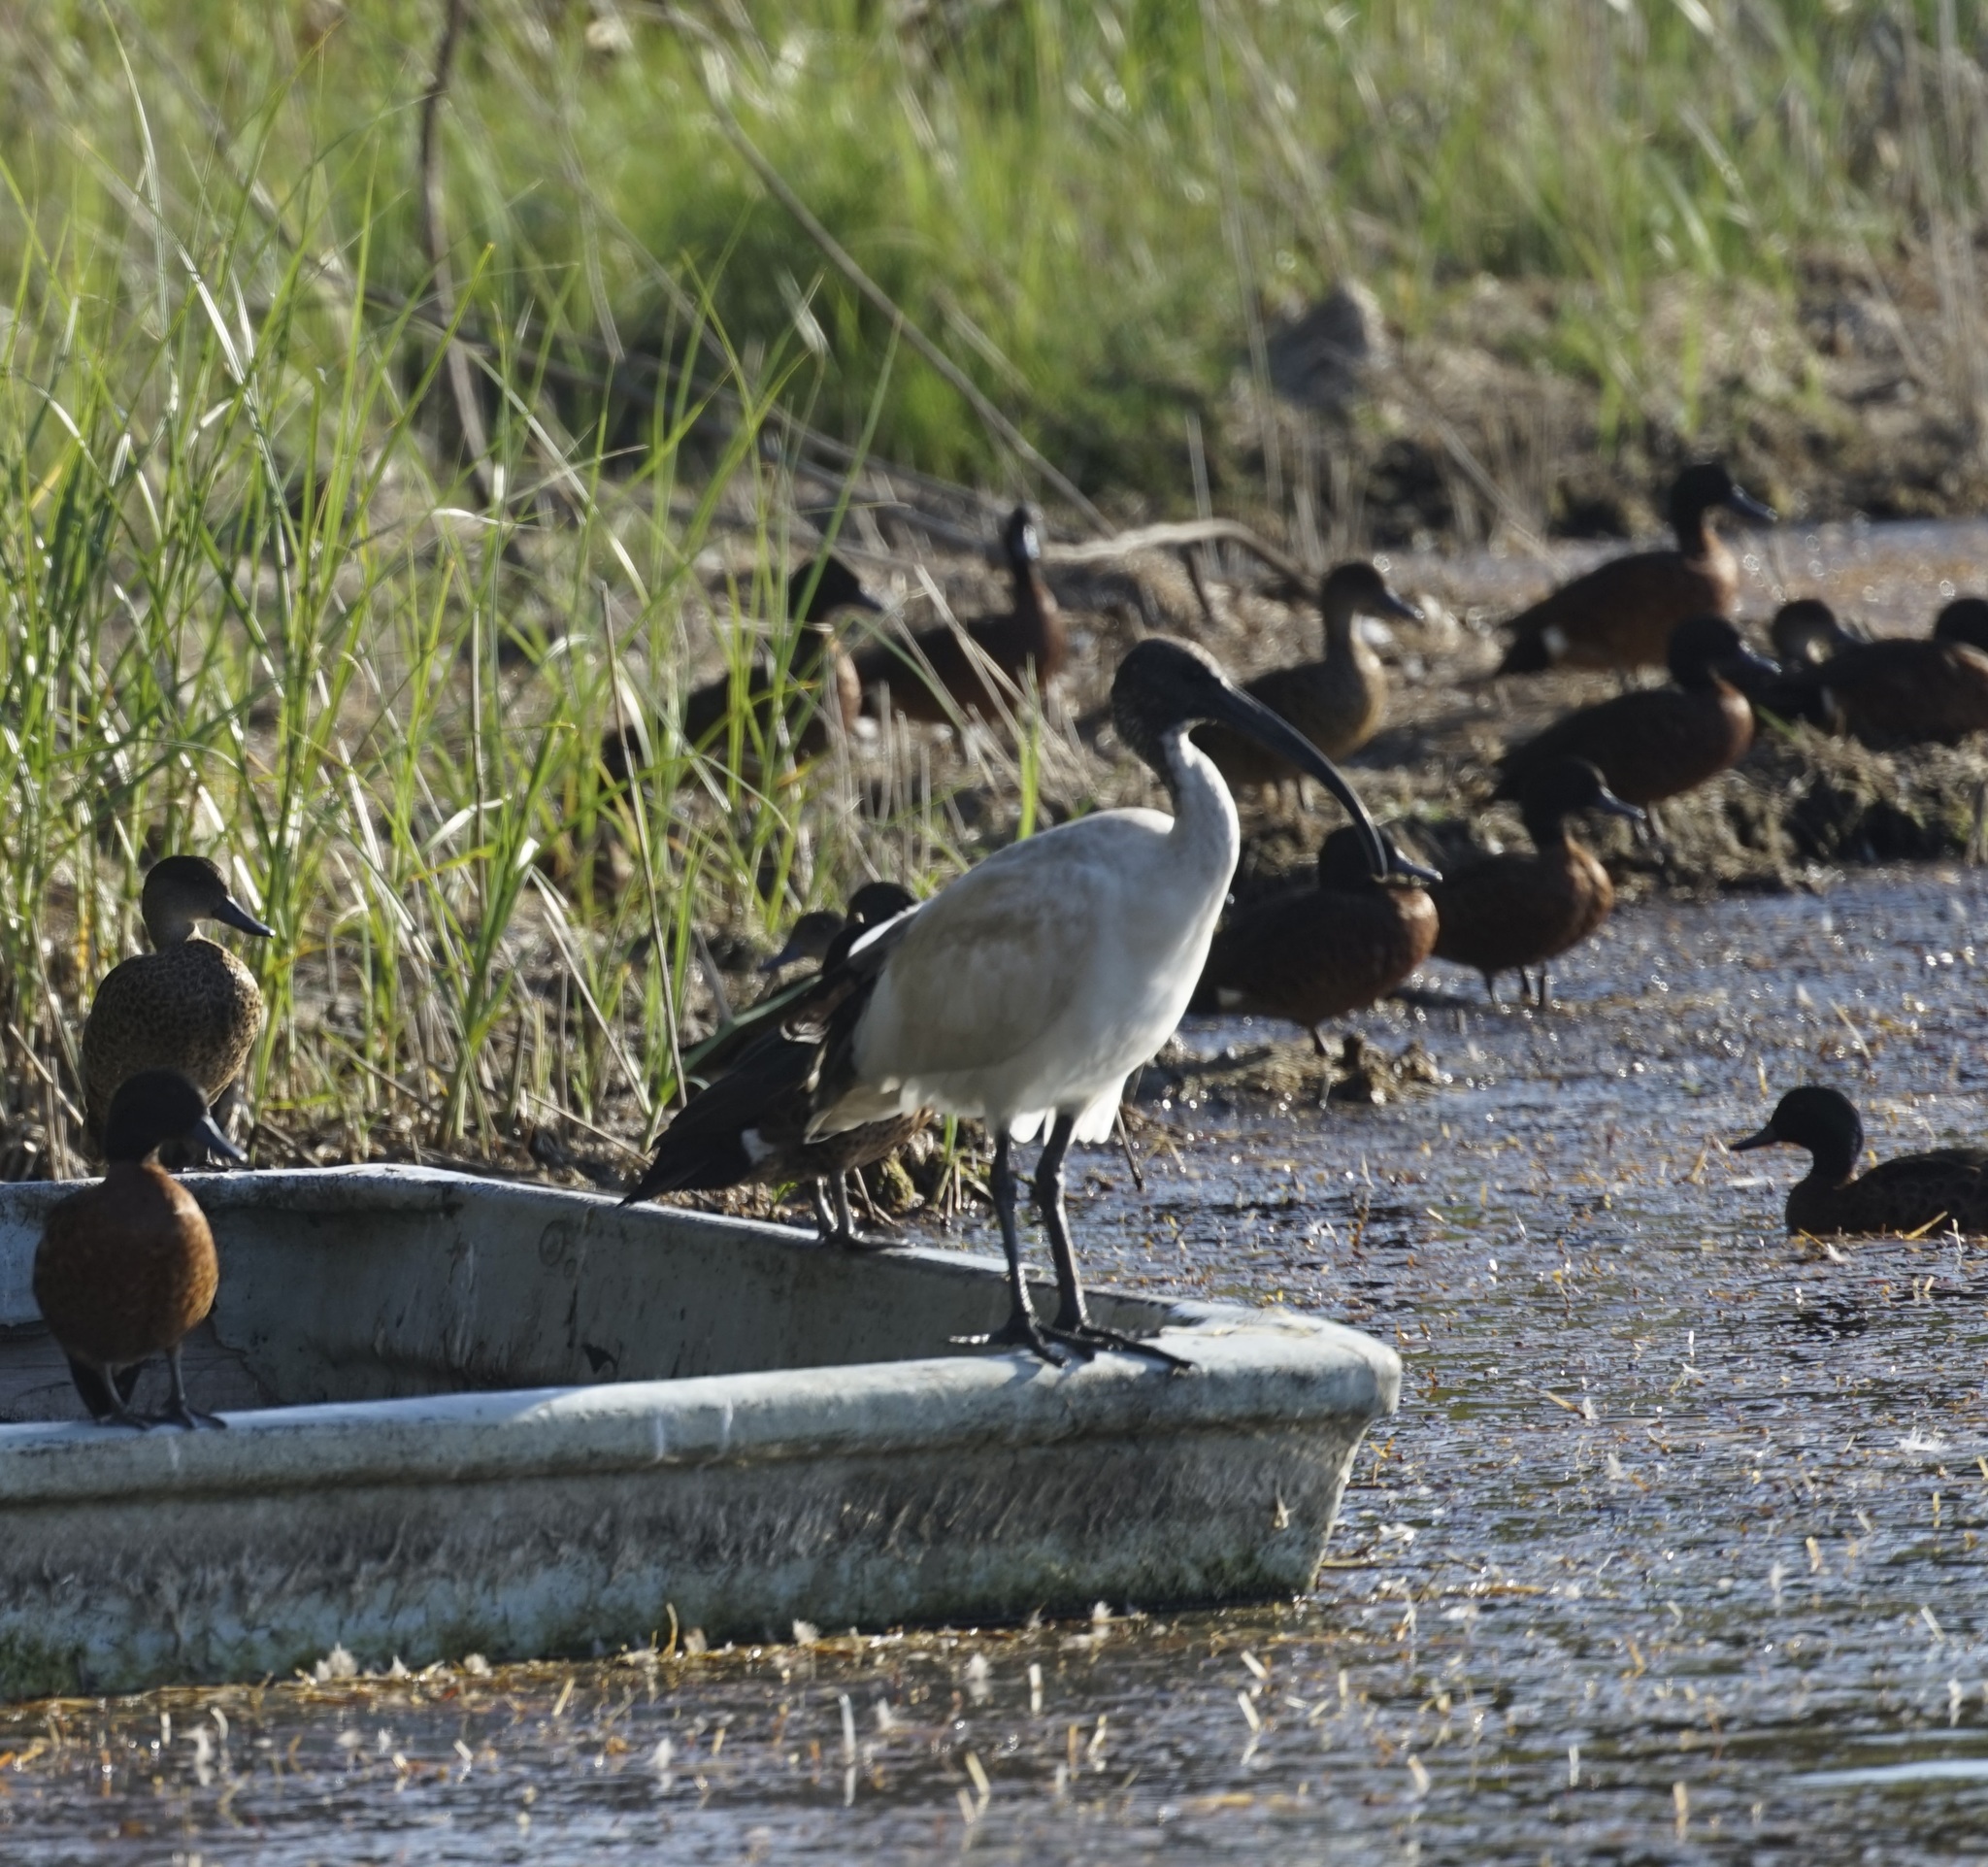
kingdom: Animalia
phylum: Chordata
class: Aves
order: Pelecaniformes
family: Threskiornithidae
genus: Threskiornis
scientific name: Threskiornis molucca
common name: Australian white ibis
